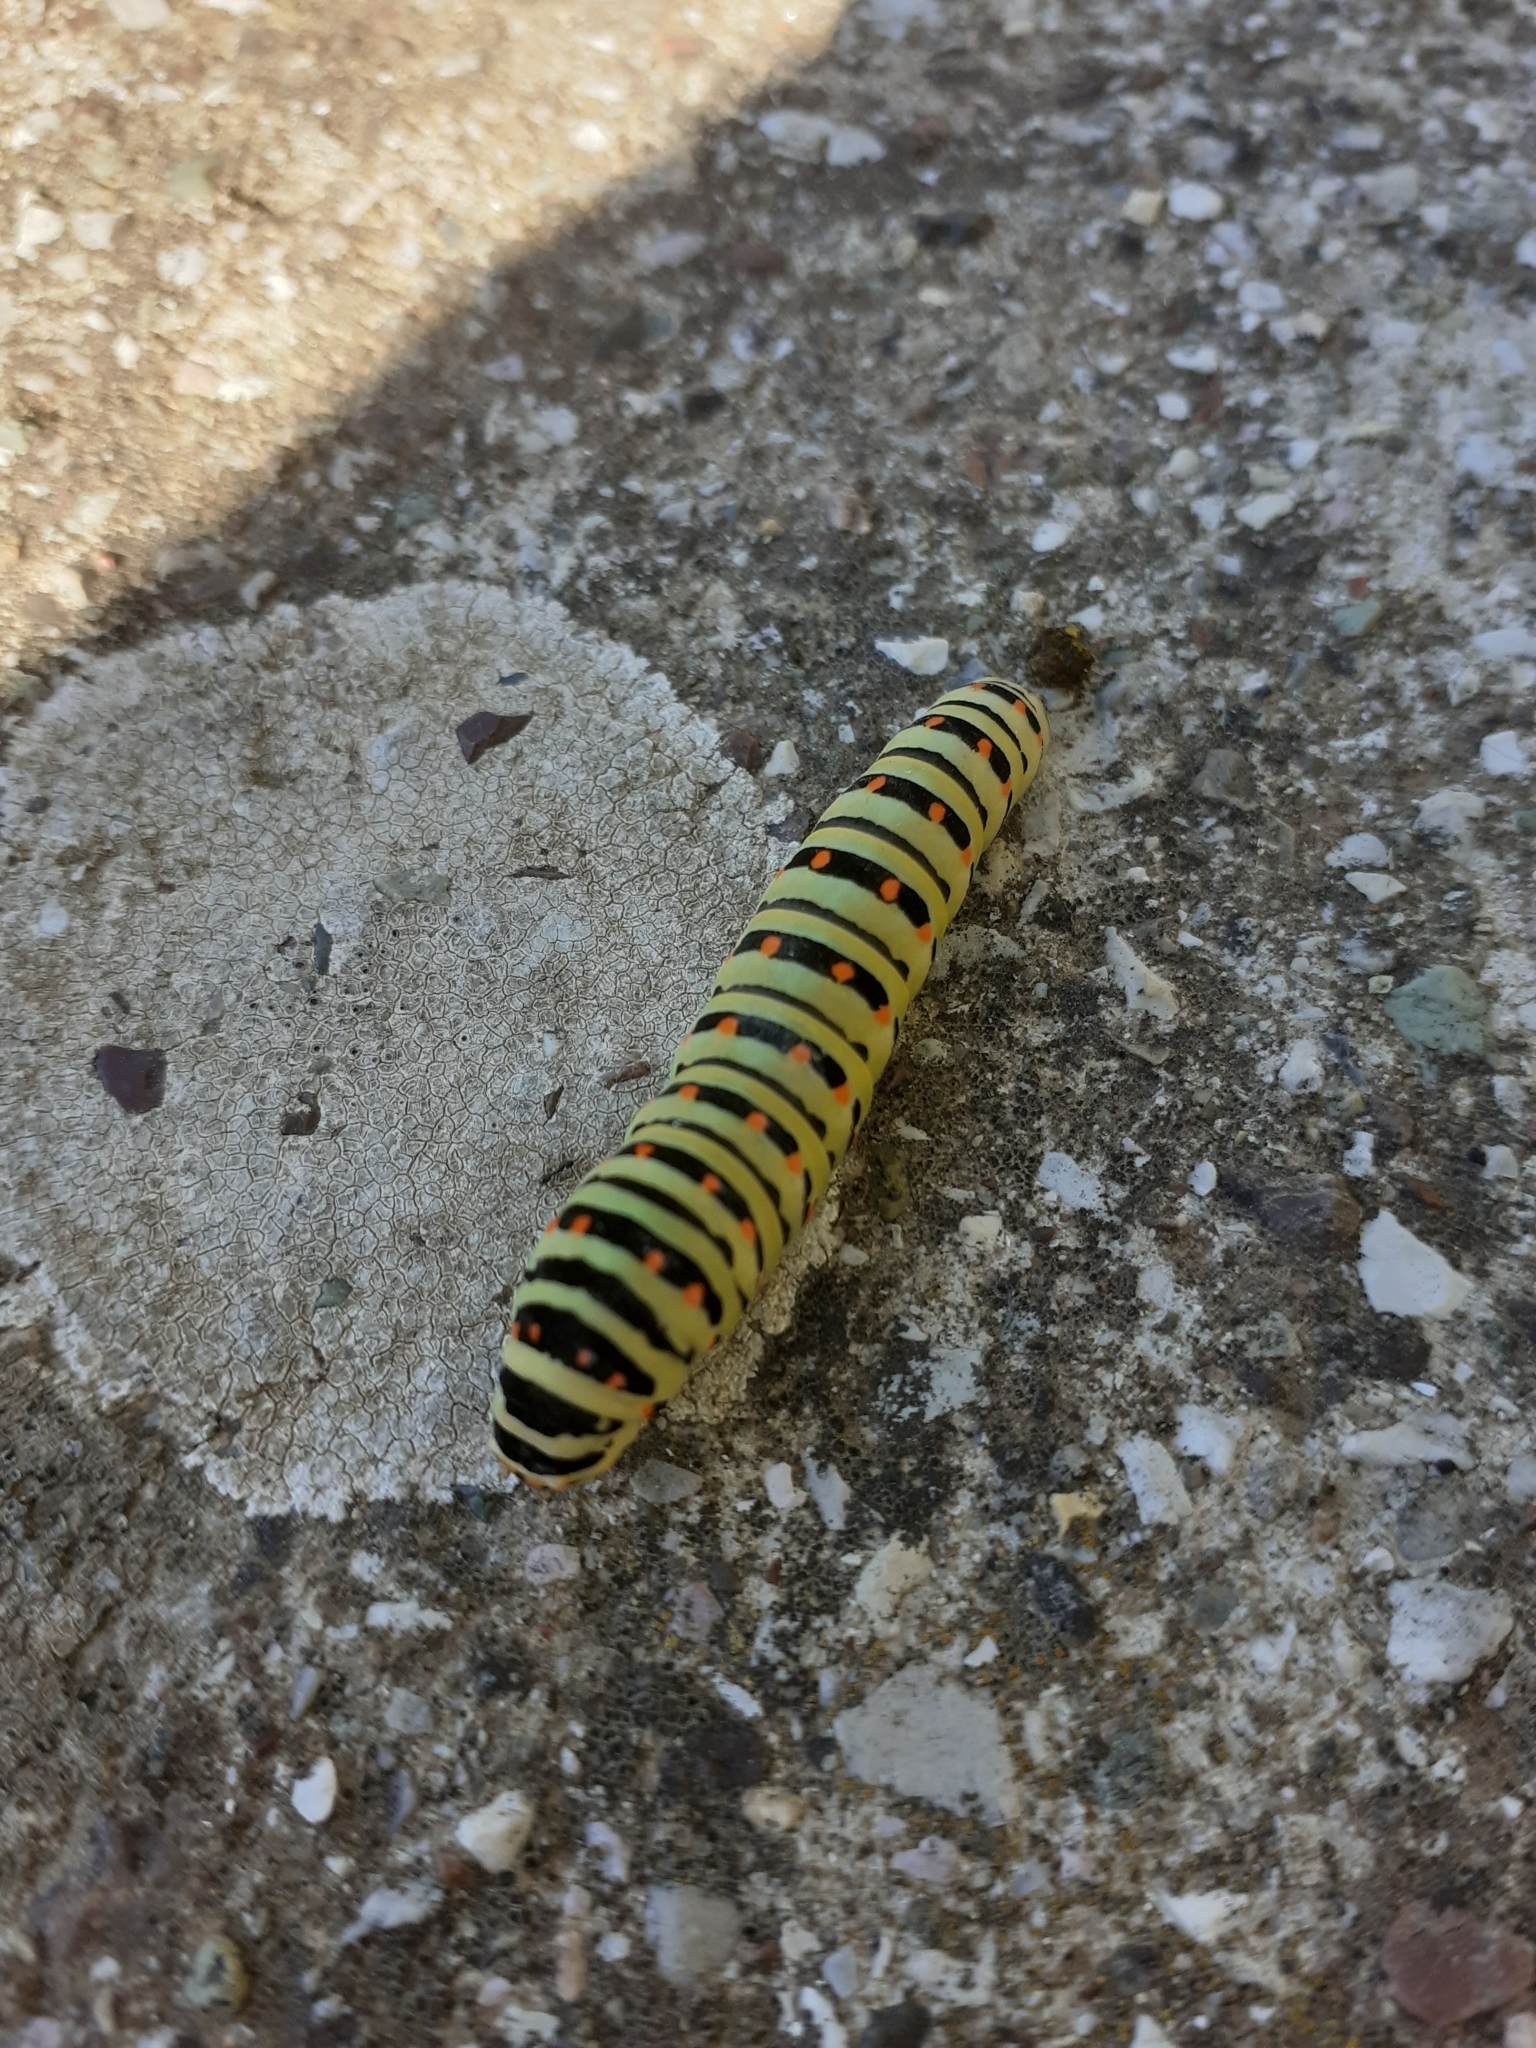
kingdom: Animalia
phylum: Arthropoda
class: Insecta
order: Lepidoptera
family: Papilionidae
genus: Papilio
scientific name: Papilio machaon
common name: Swallowtail
